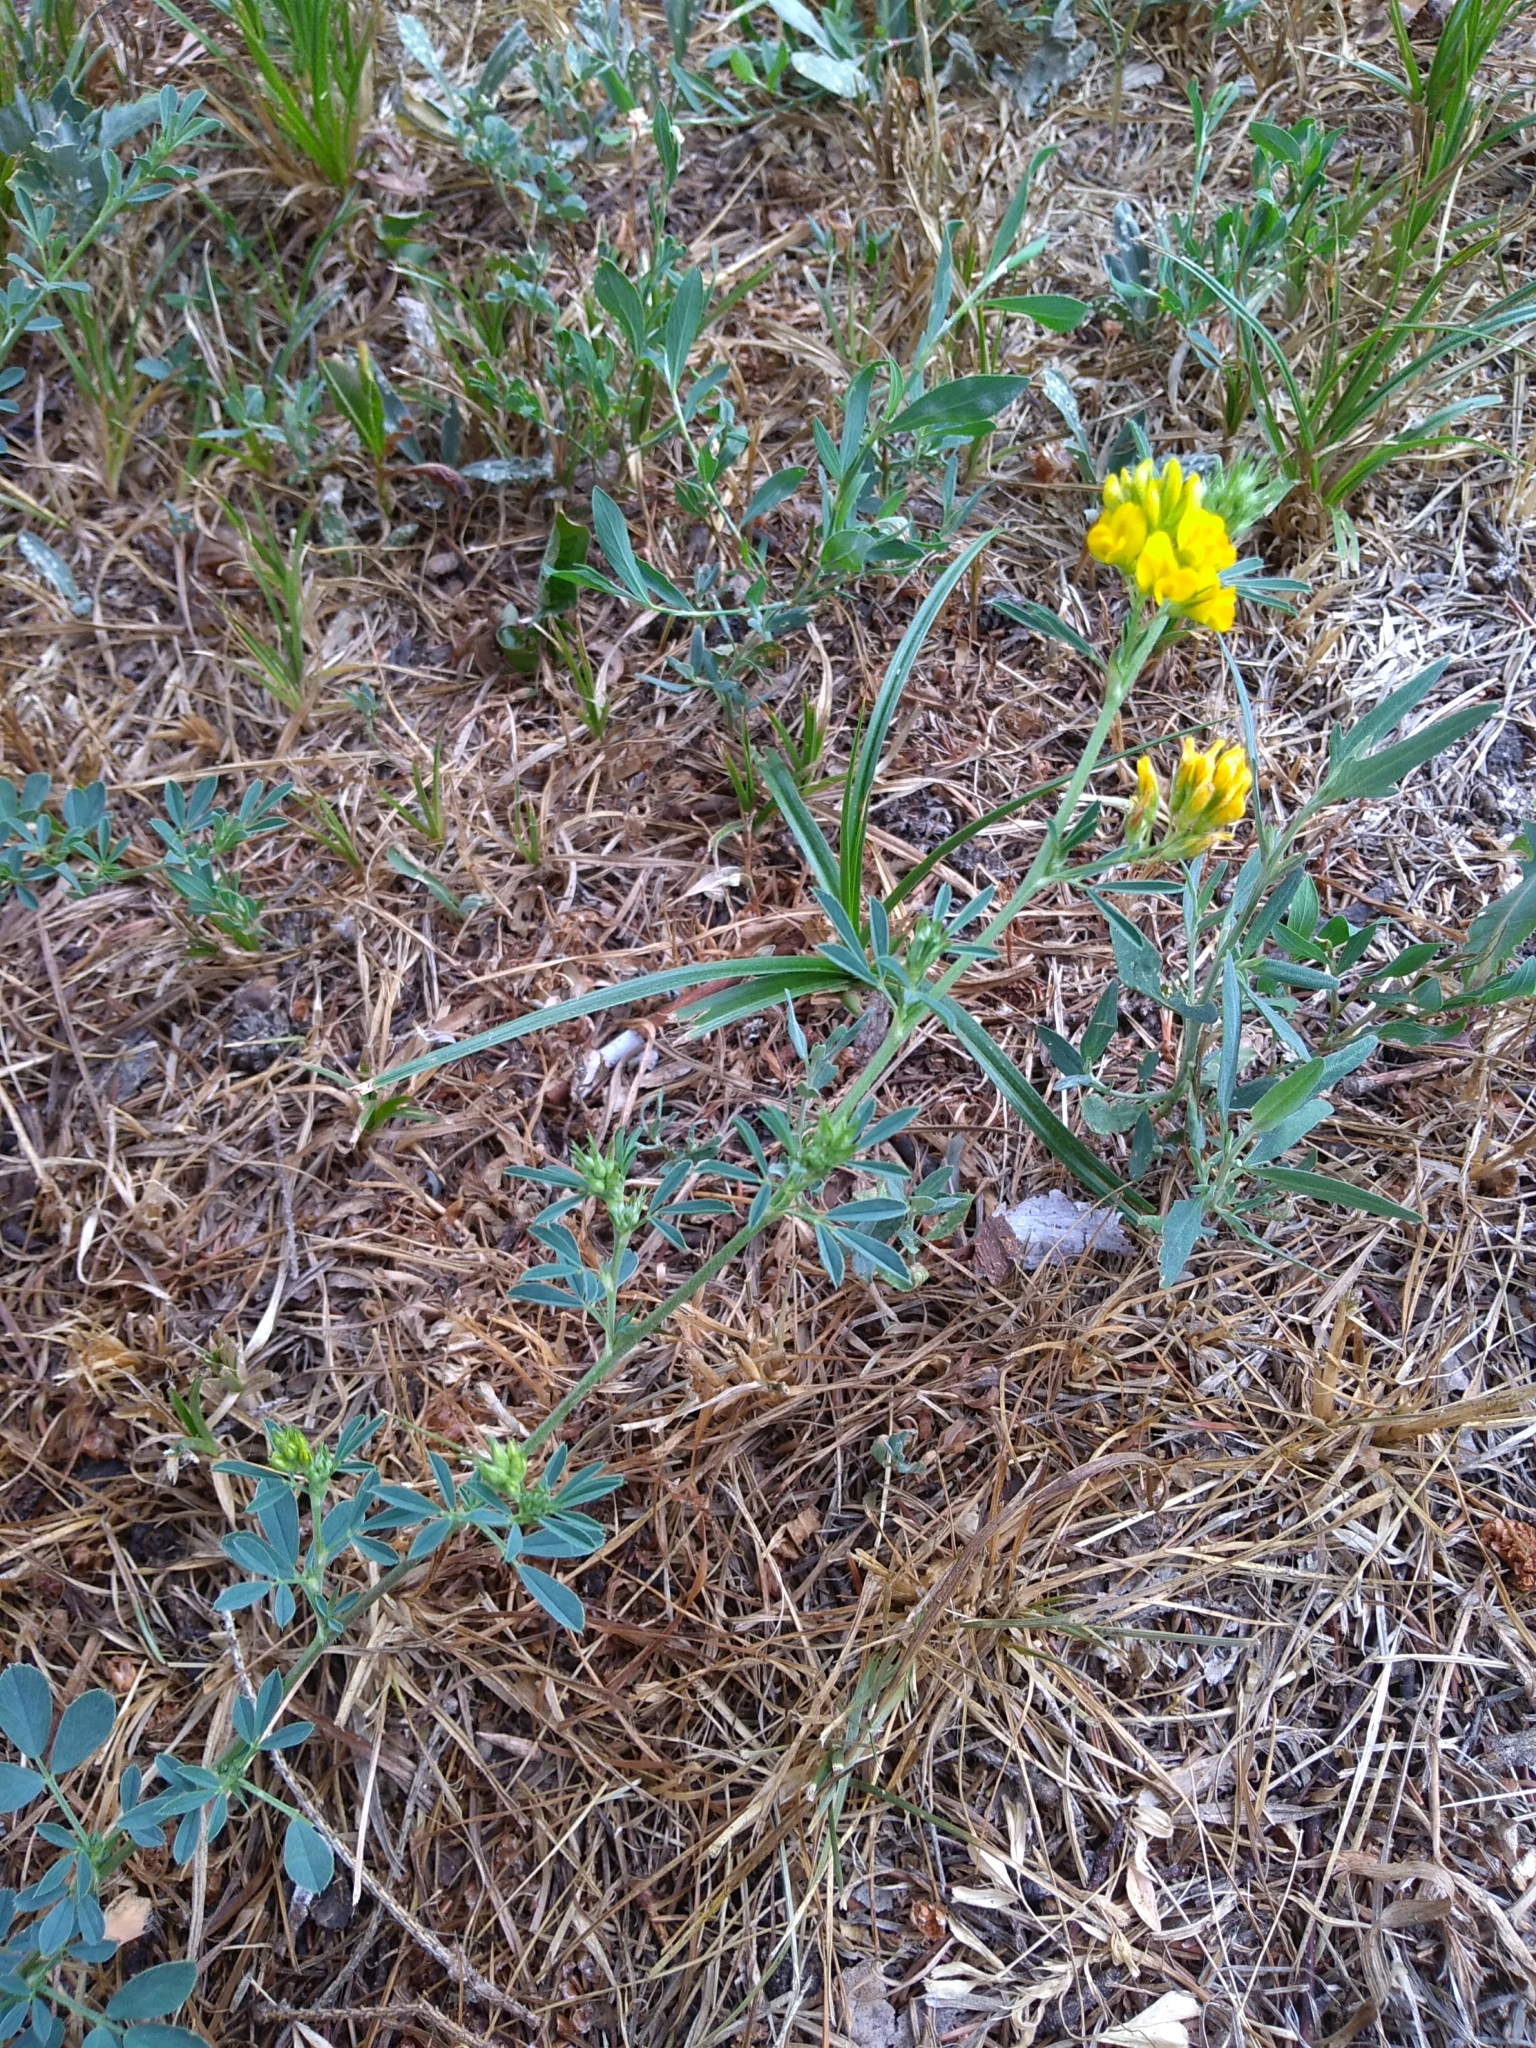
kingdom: Plantae
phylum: Tracheophyta
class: Magnoliopsida
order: Fabales
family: Fabaceae
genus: Medicago
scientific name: Medicago falcata
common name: Sickle medick
